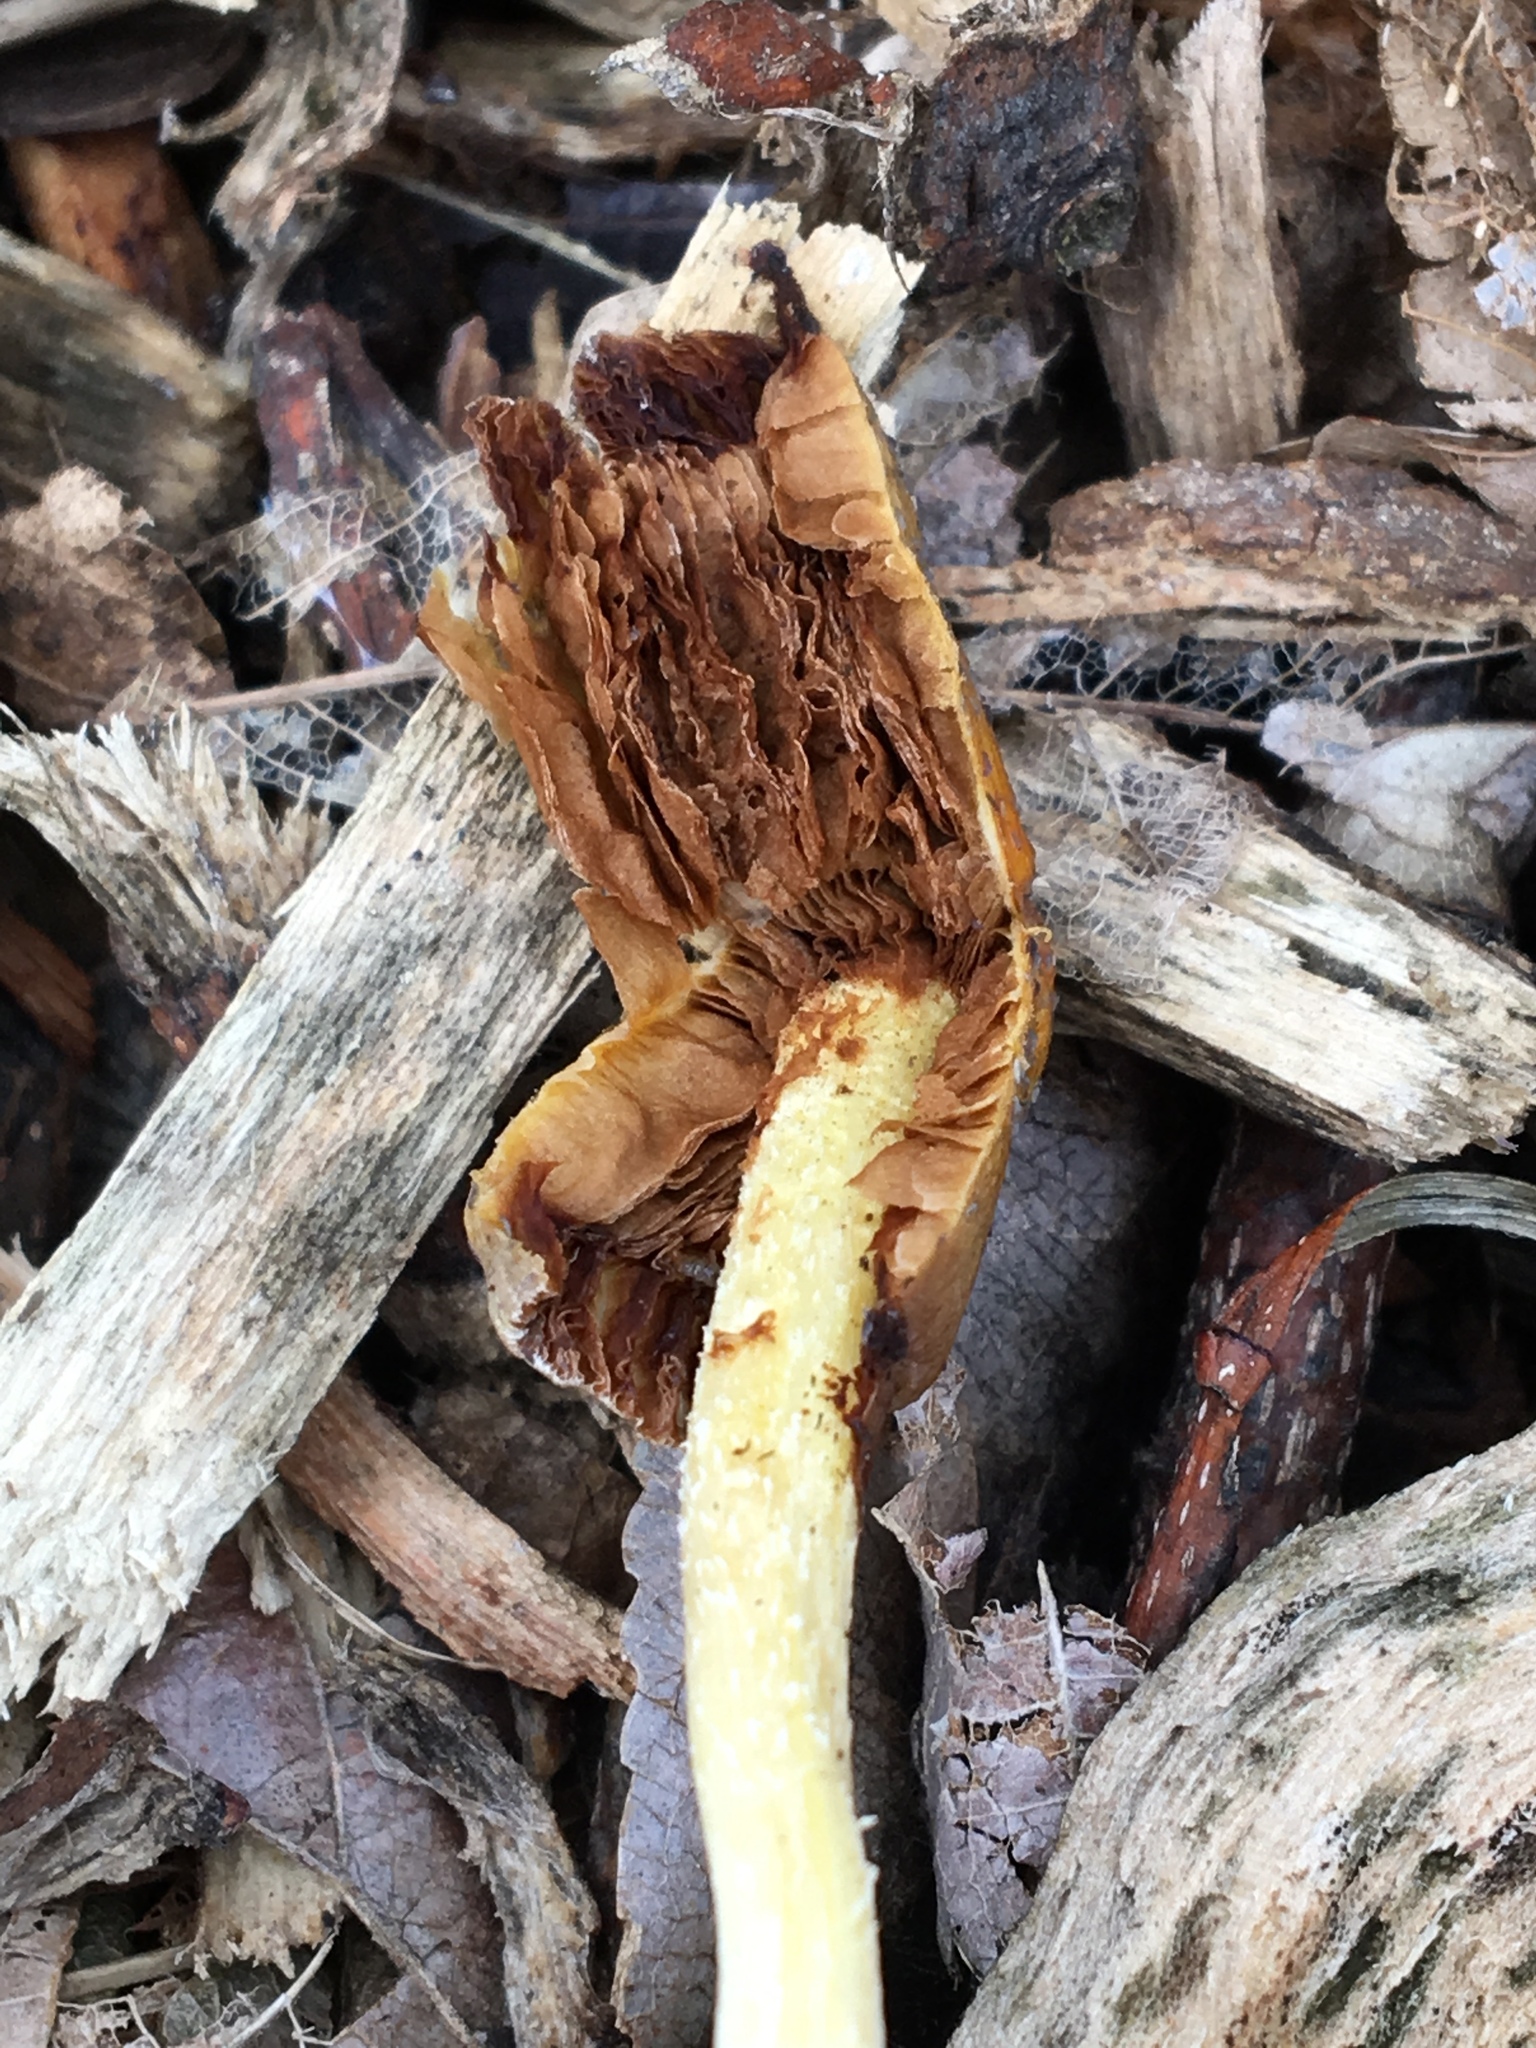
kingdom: Fungi
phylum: Basidiomycota
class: Agaricomycetes
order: Agaricales
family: Bolbitiaceae
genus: Bolbitius
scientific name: Bolbitius titubans
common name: Yellow fieldcap
